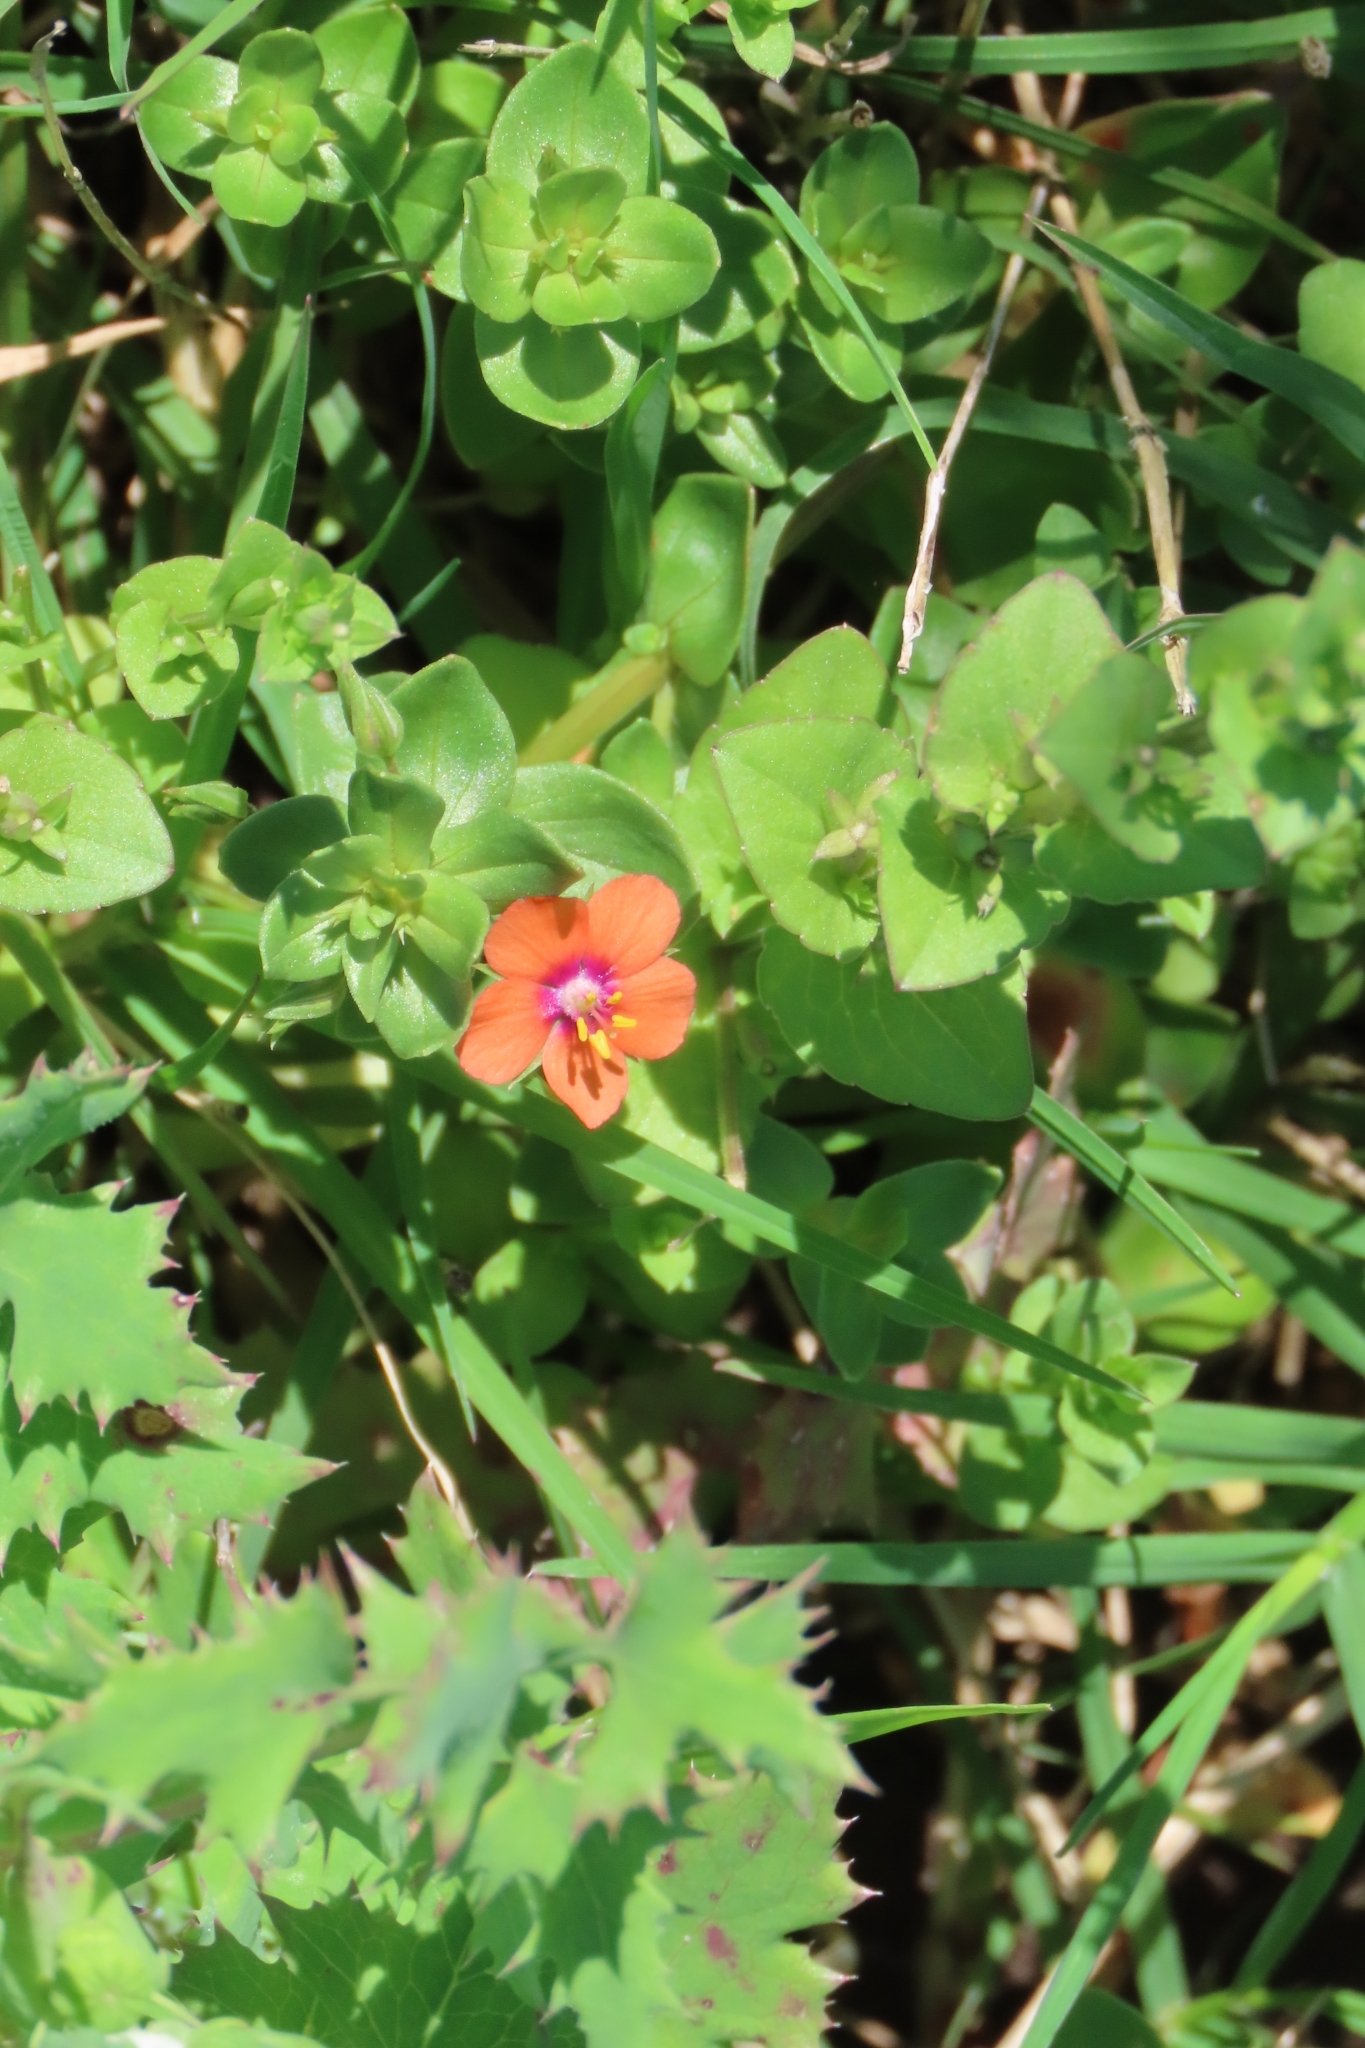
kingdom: Plantae
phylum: Tracheophyta
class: Magnoliopsida
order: Ericales
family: Primulaceae
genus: Lysimachia
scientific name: Lysimachia arvensis
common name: Scarlet pimpernel
